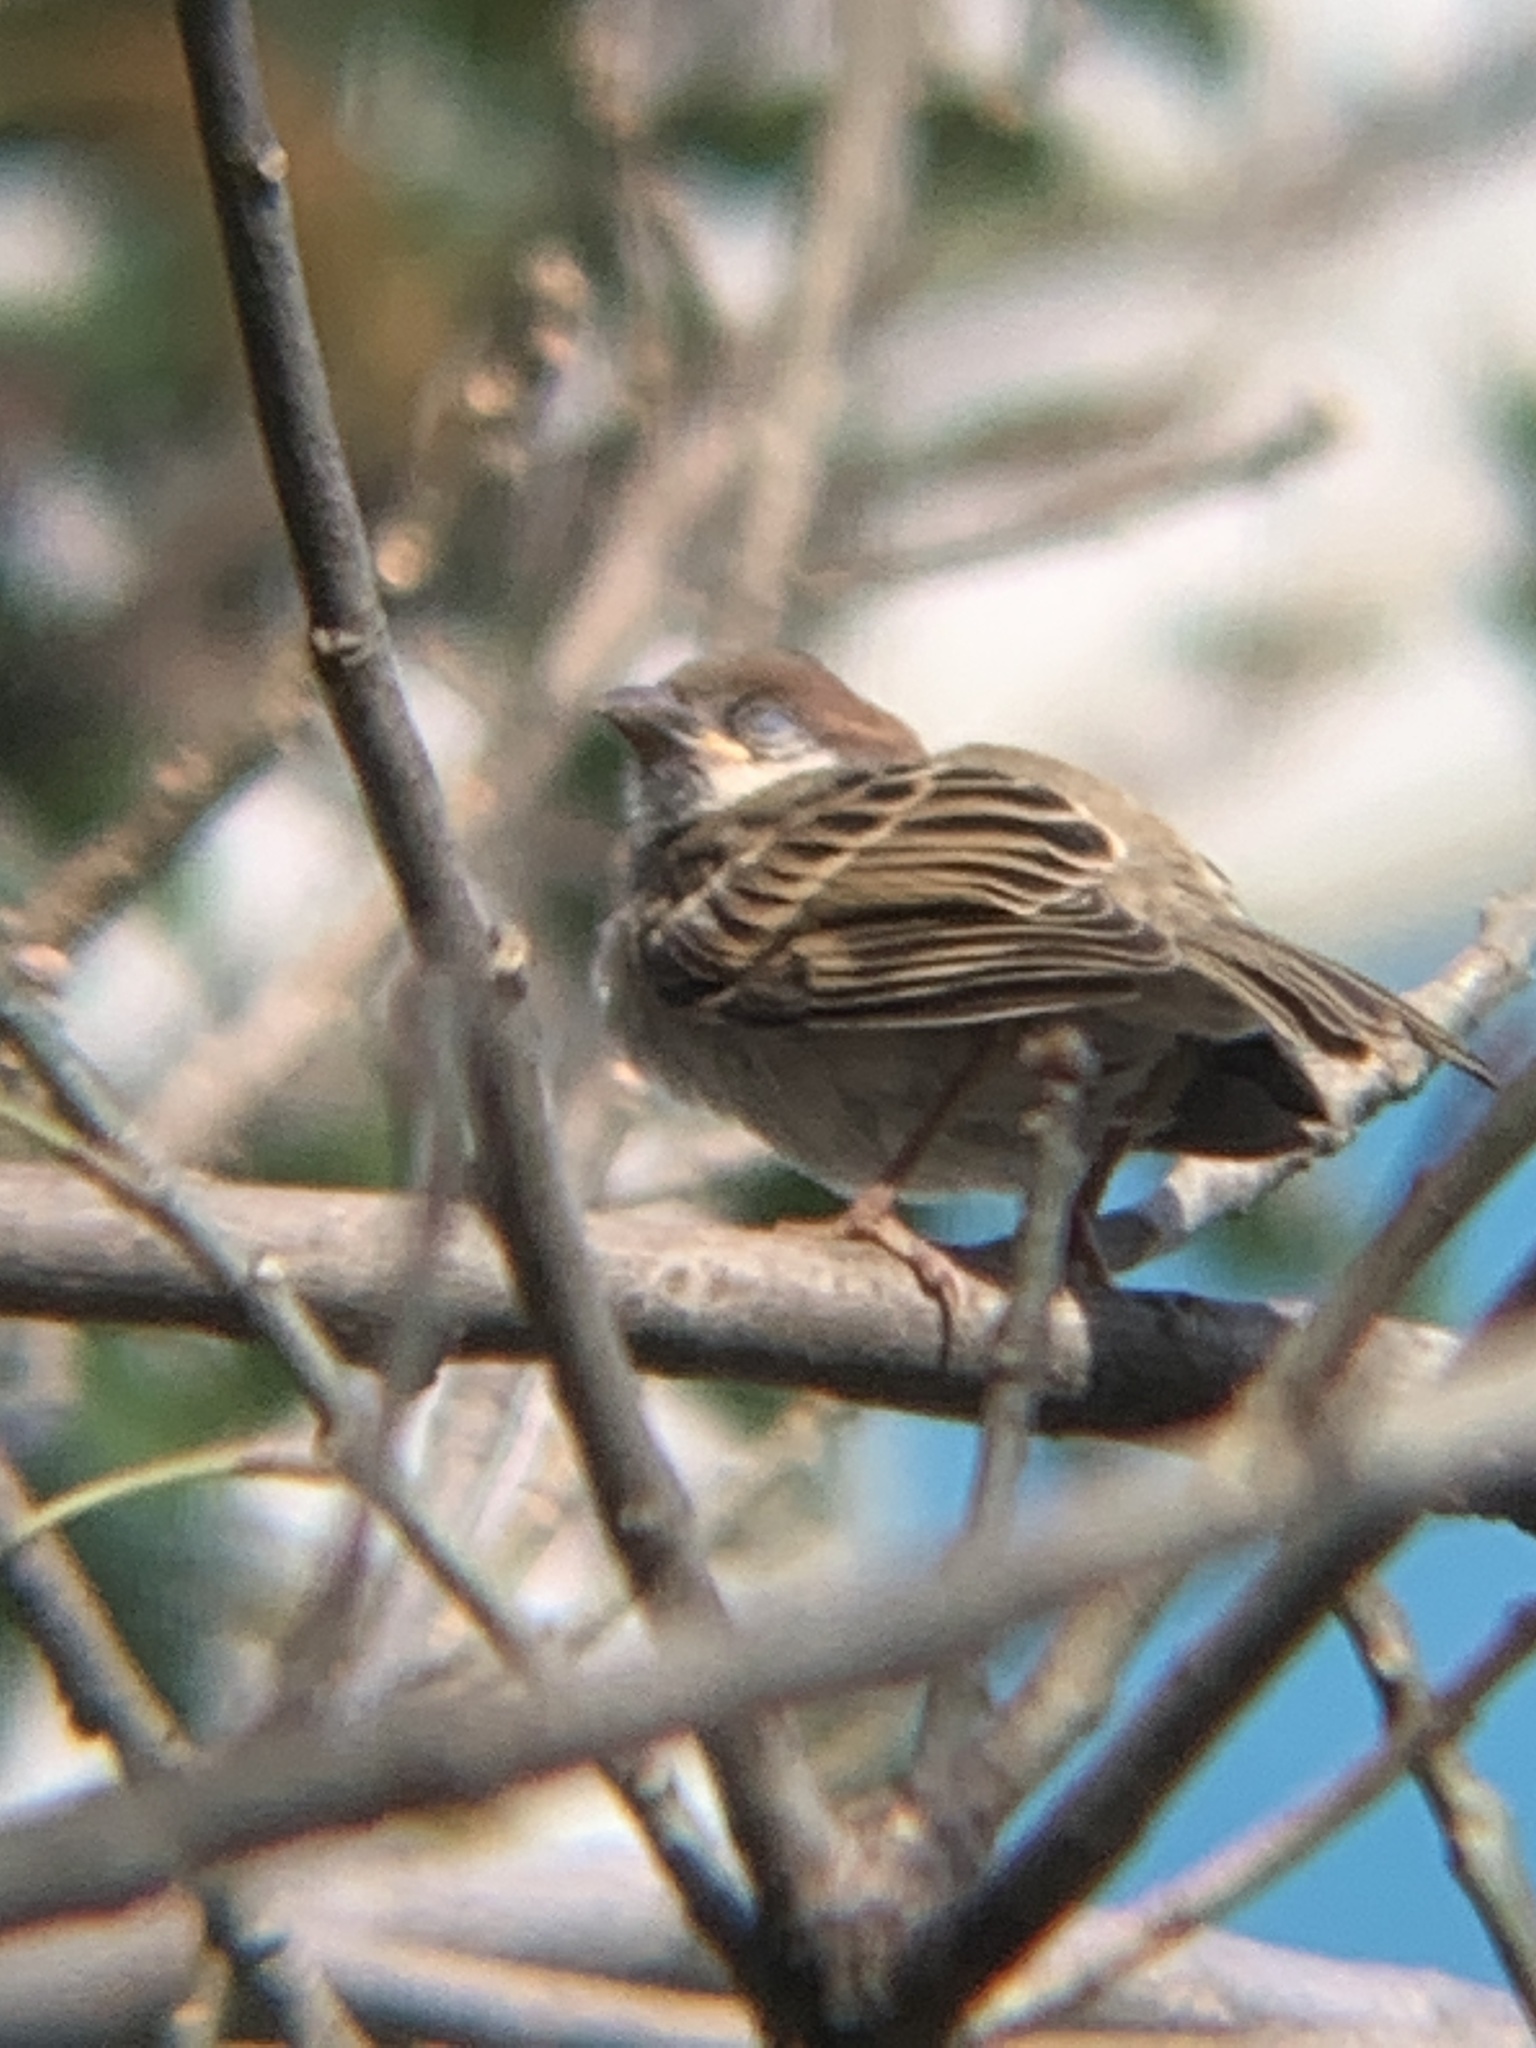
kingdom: Animalia
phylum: Chordata
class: Aves
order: Passeriformes
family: Passeridae
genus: Passer
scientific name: Passer montanus
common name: Eurasian tree sparrow
